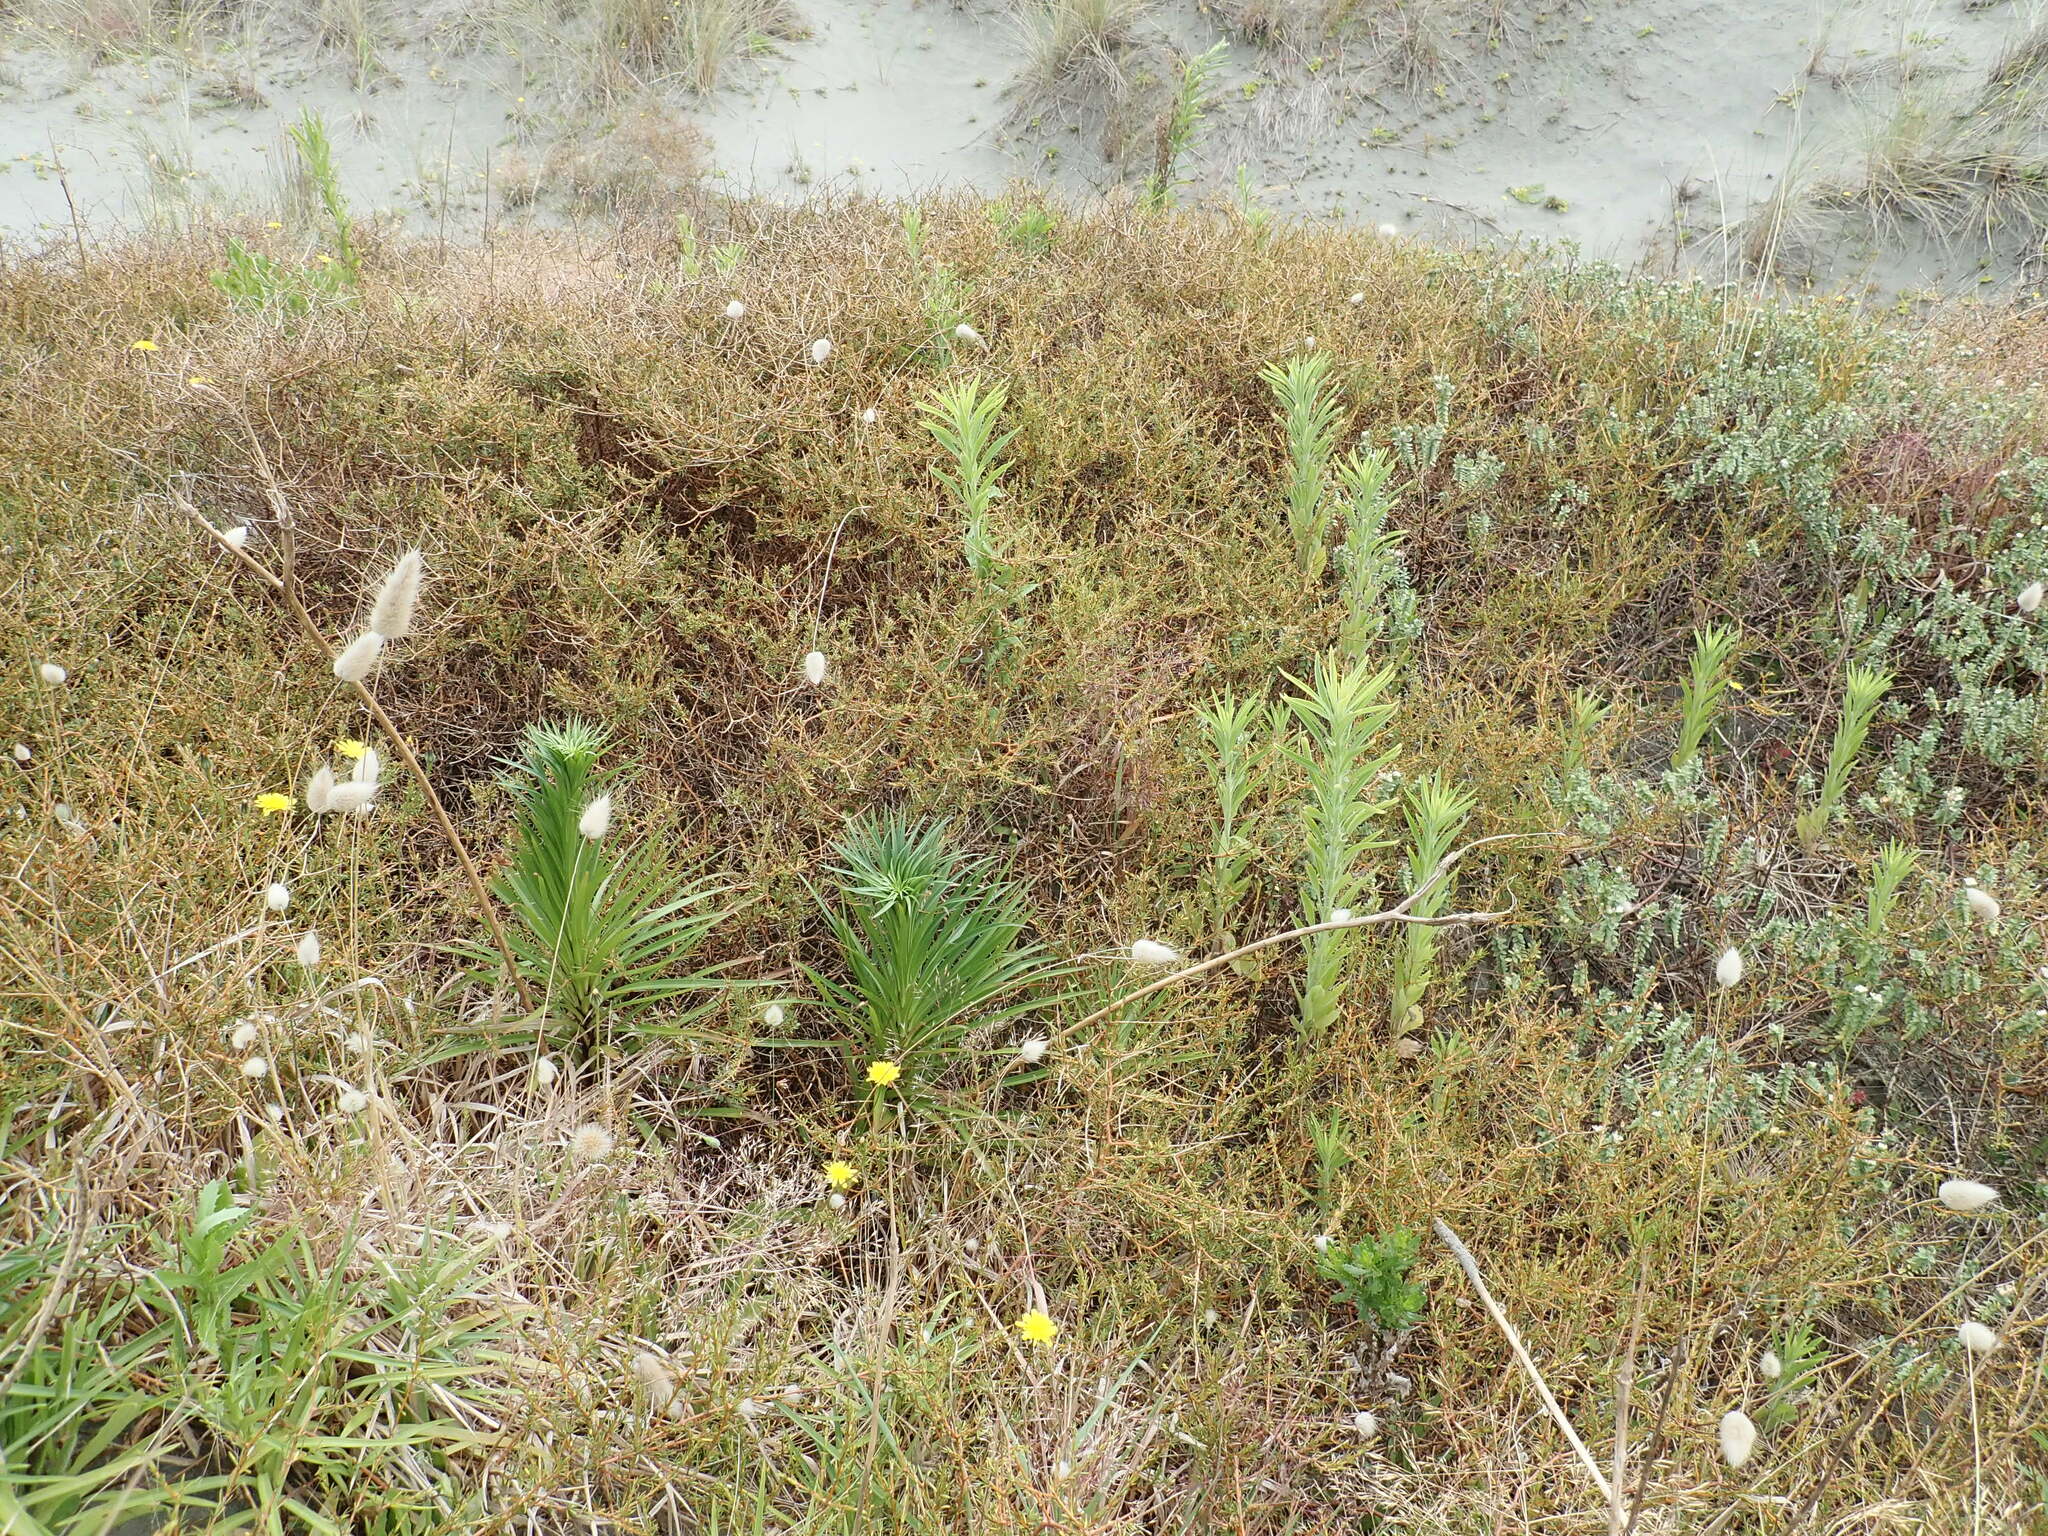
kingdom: Plantae
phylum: Tracheophyta
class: Liliopsida
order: Liliales
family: Liliaceae
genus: Lilium
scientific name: Lilium formosanum
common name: Formosa lily
